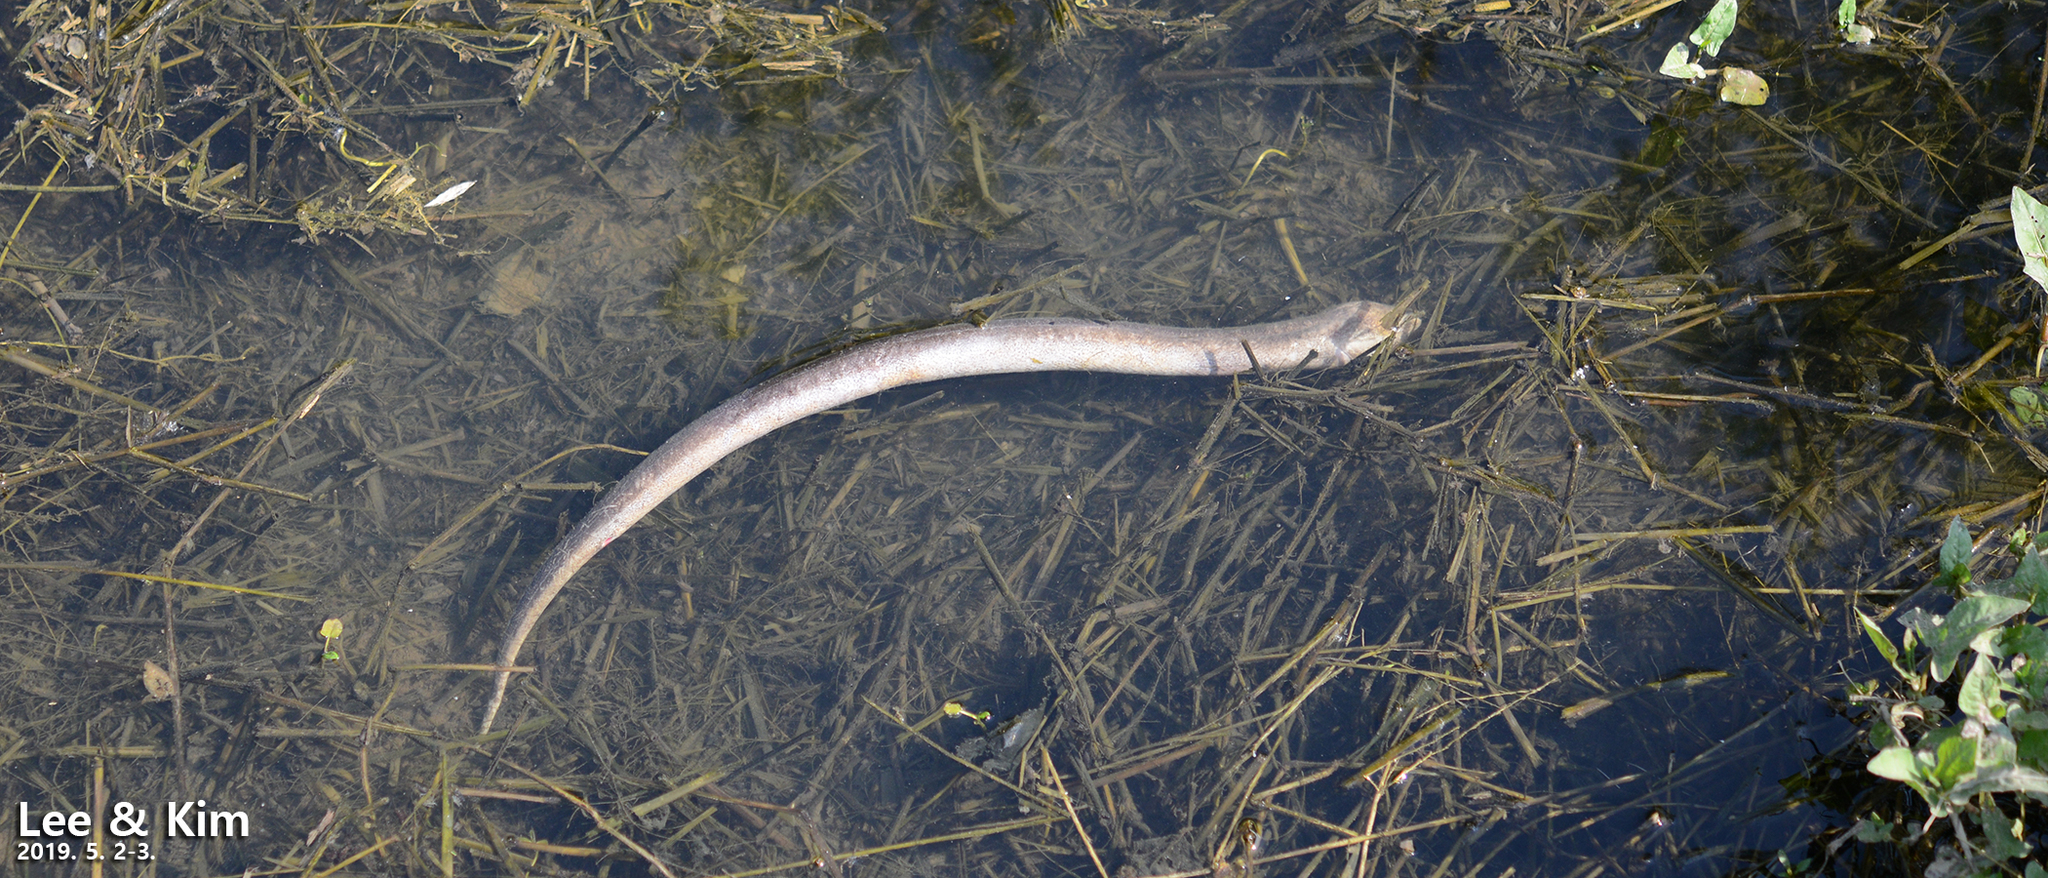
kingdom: Animalia
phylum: Chordata
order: Synbranchiformes
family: Synbranchidae
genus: Monopterus
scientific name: Monopterus albus
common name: Asian swamp eel
